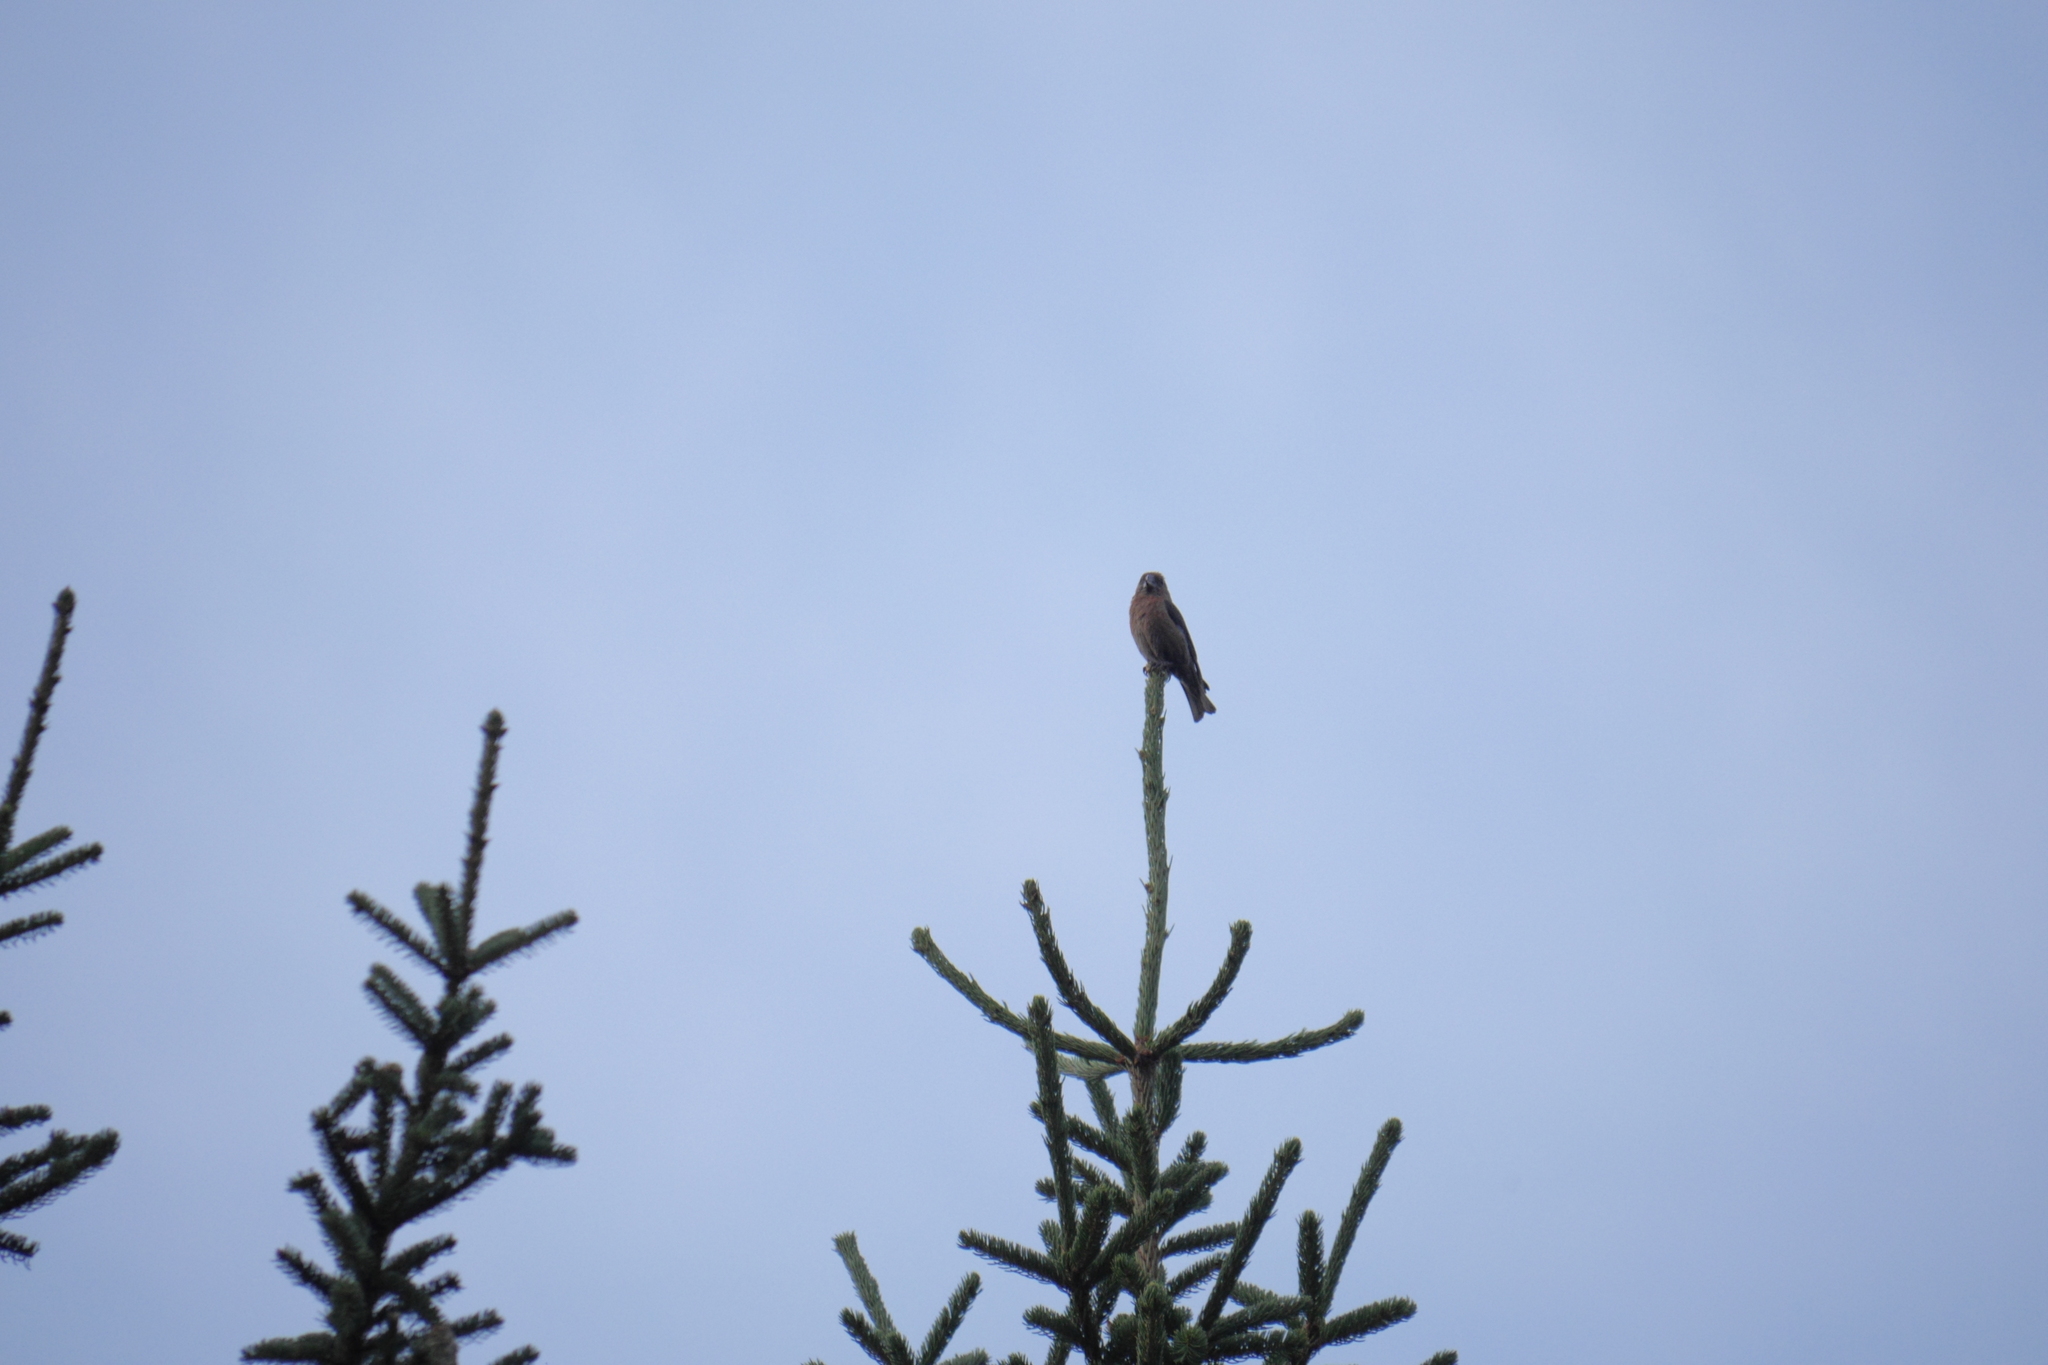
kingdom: Animalia
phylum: Chordata
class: Aves
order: Passeriformes
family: Fringillidae
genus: Loxia
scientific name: Loxia curvirostra
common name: Red crossbill
